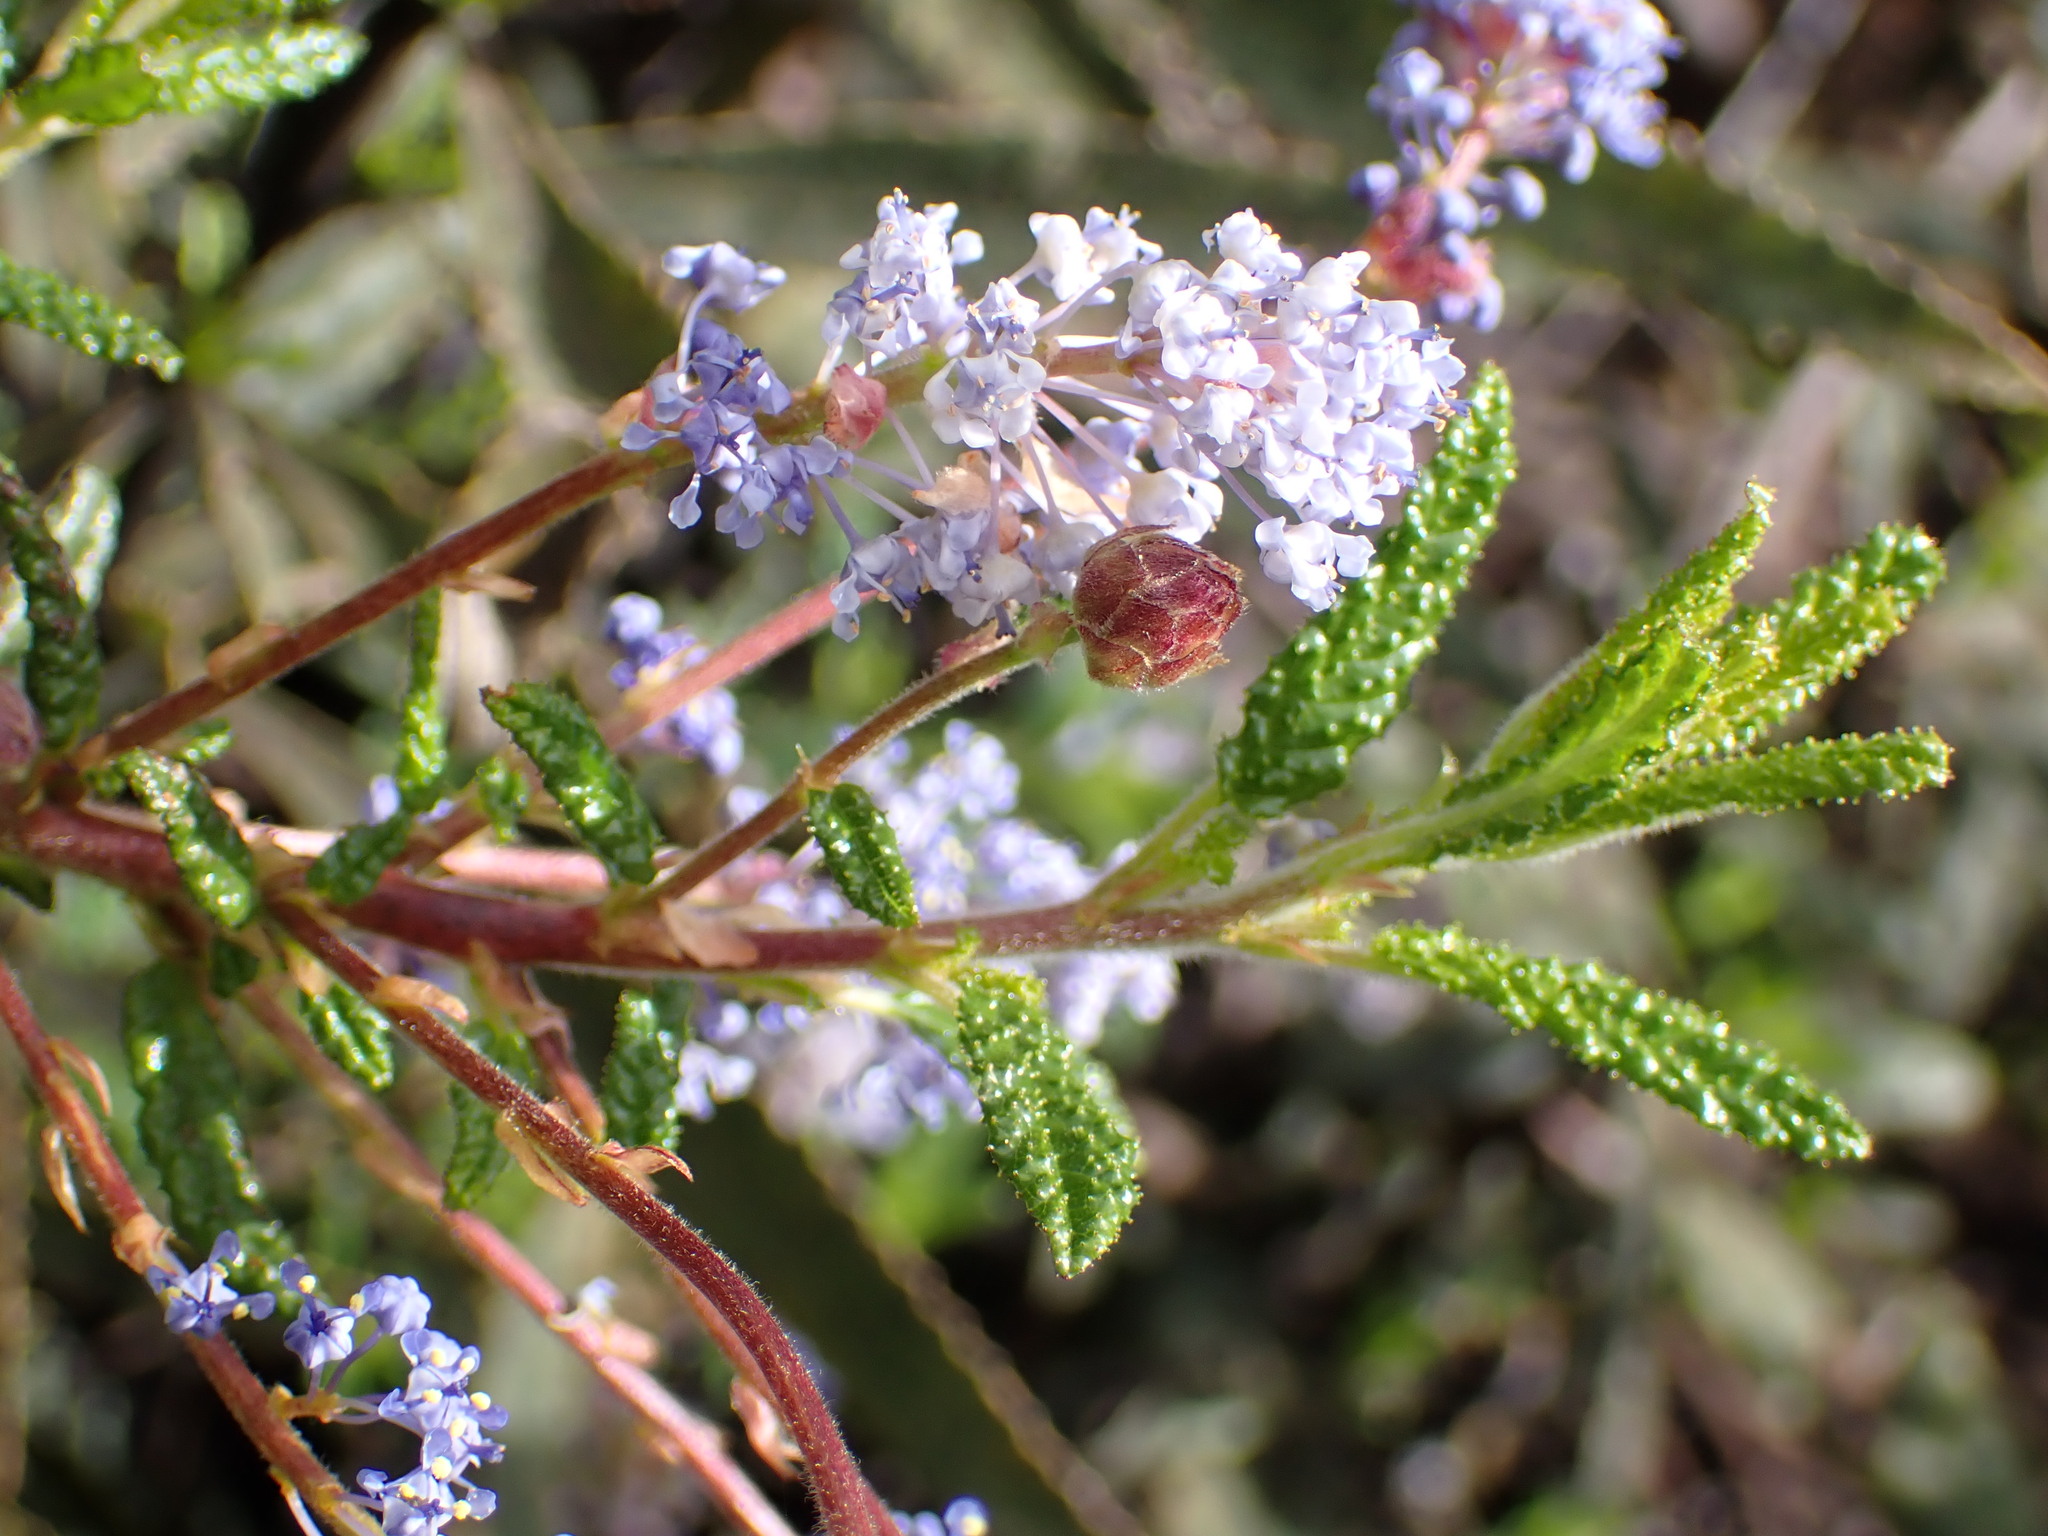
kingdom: Plantae
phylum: Tracheophyta
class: Magnoliopsida
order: Rosales
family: Rhamnaceae
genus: Ceanothus
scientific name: Ceanothus papillosus
